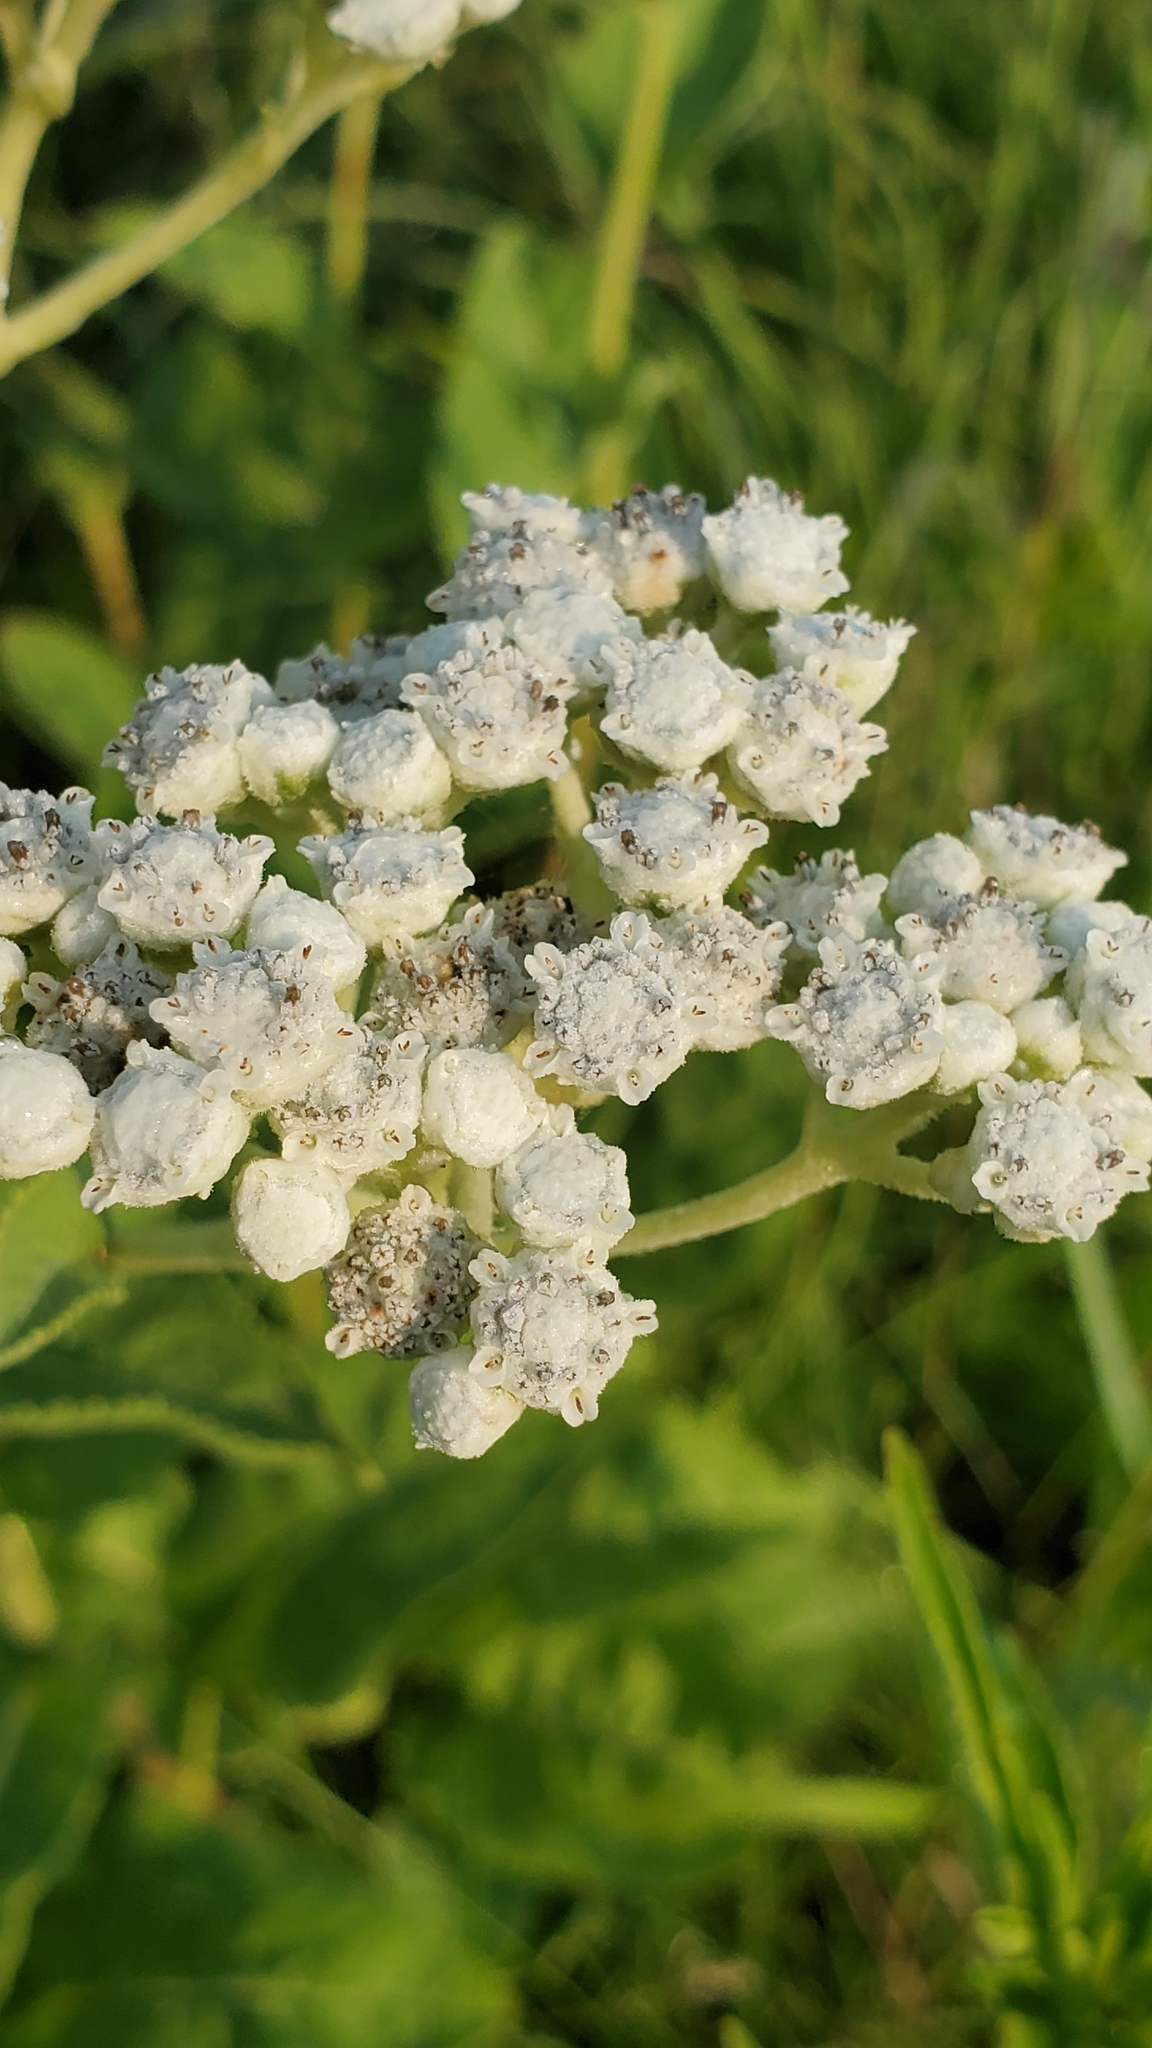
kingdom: Plantae
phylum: Tracheophyta
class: Magnoliopsida
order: Asterales
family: Asteraceae
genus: Parthenium
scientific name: Parthenium integrifolium
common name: American feverfew
